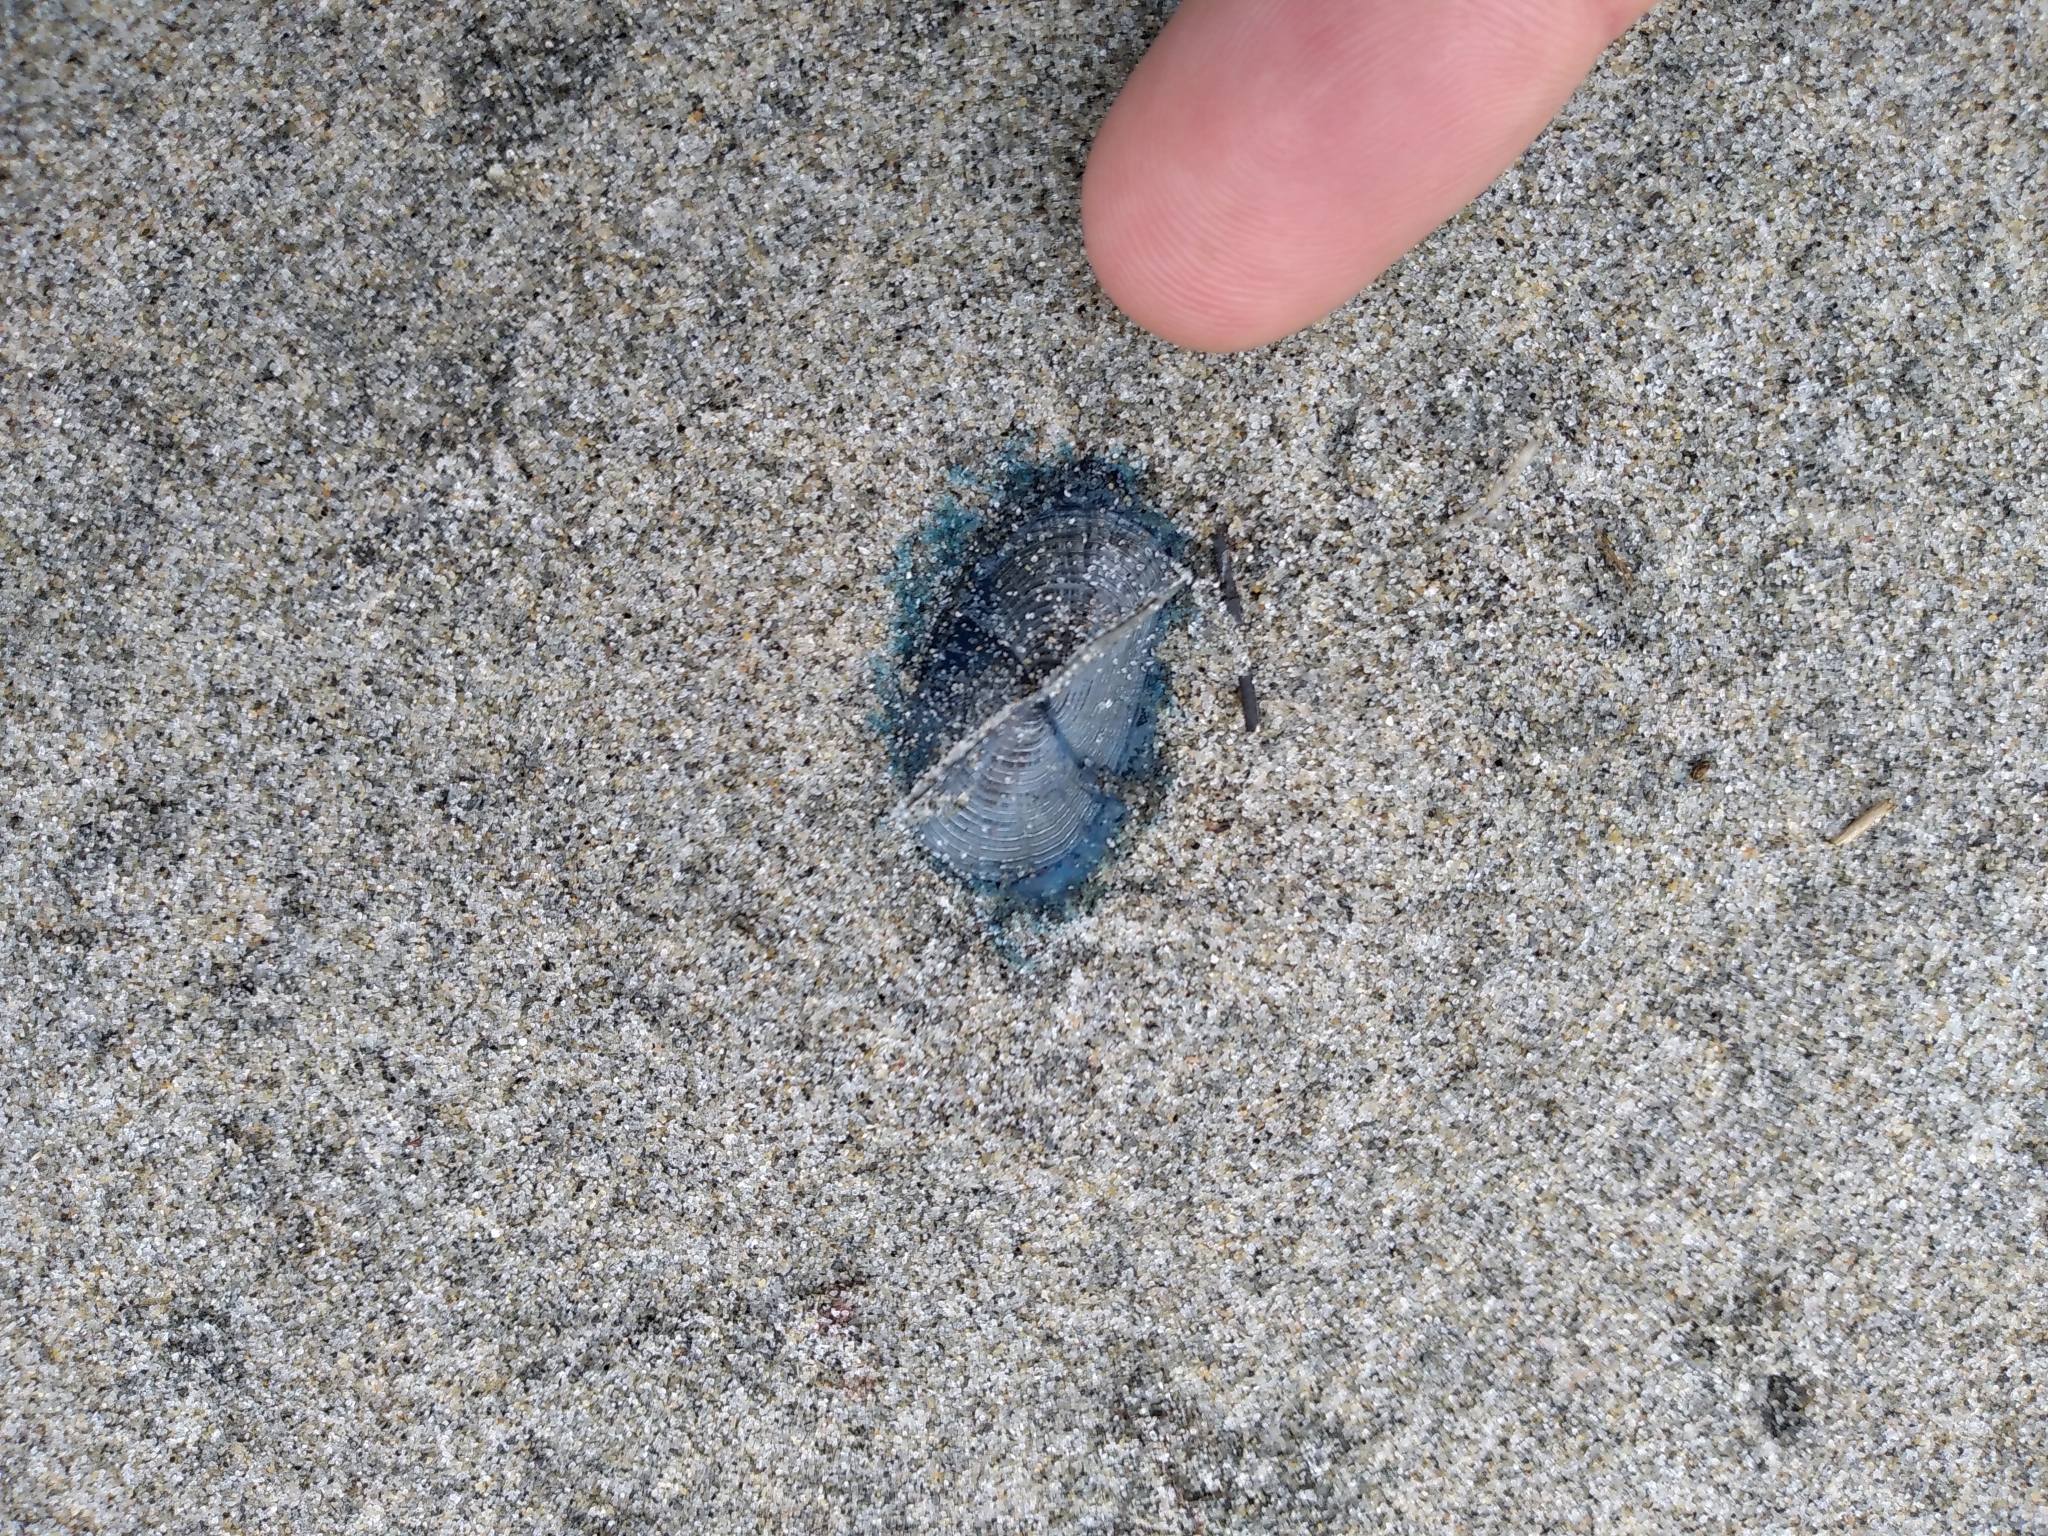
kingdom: Animalia
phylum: Cnidaria
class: Hydrozoa
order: Anthoathecata
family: Porpitidae
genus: Velella
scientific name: Velella velella
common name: By-the-wind-sailor
